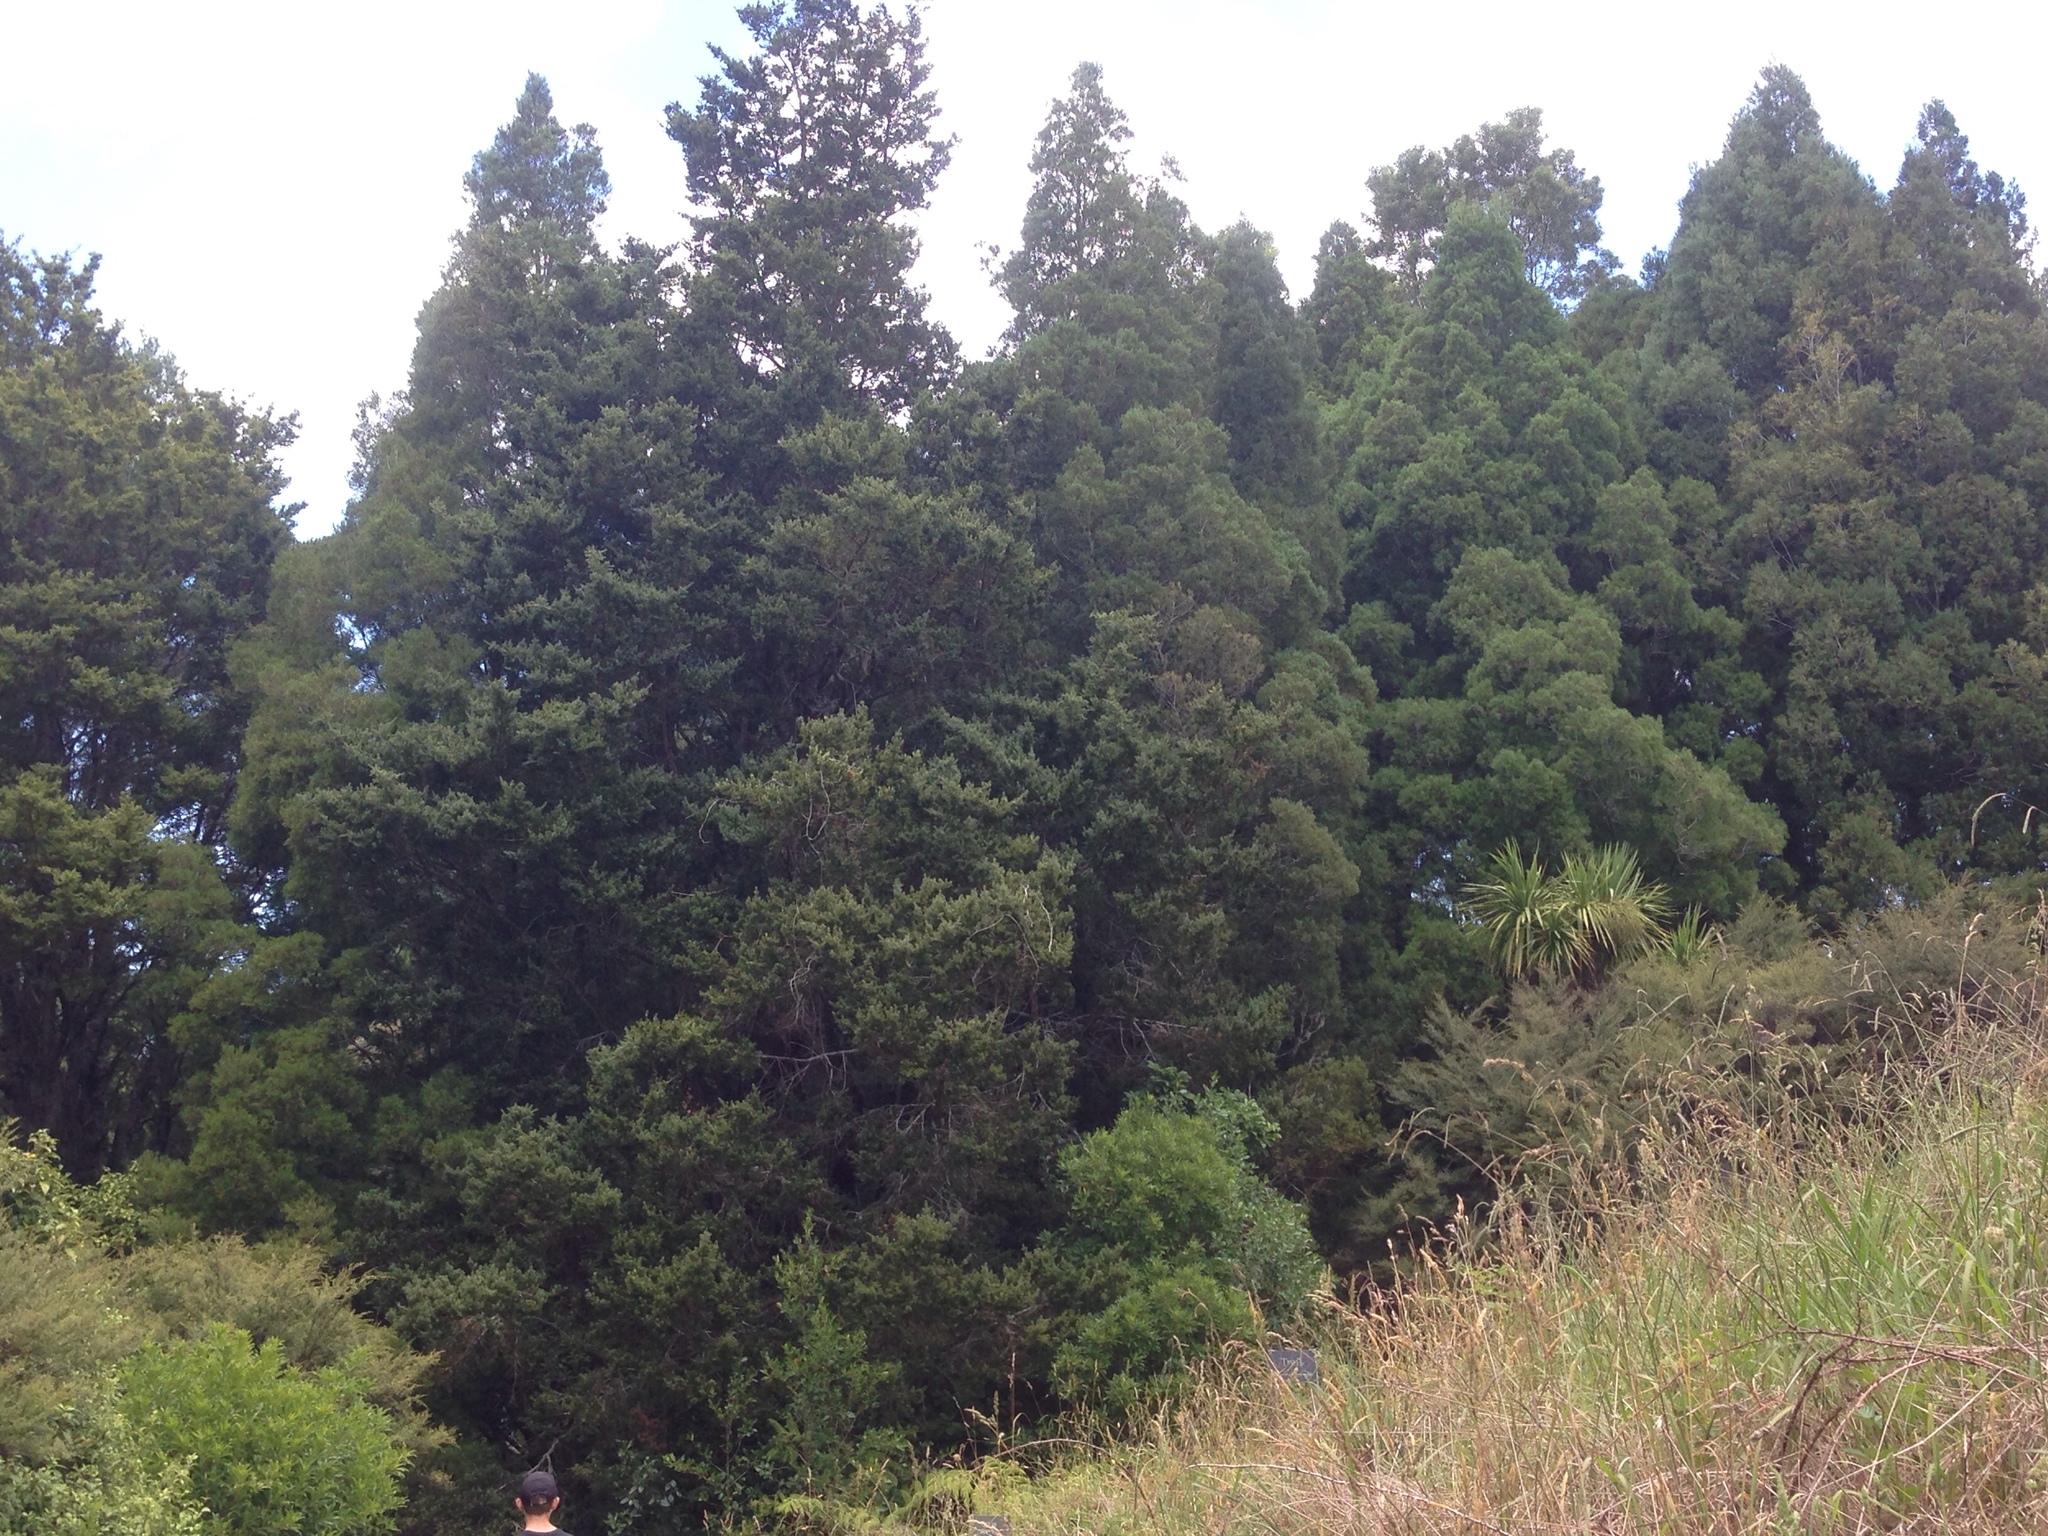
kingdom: Plantae
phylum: Tracheophyta
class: Pinopsida
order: Pinales
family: Podocarpaceae
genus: Dacrycarpus
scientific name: Dacrycarpus dacrydioides
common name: White pine
